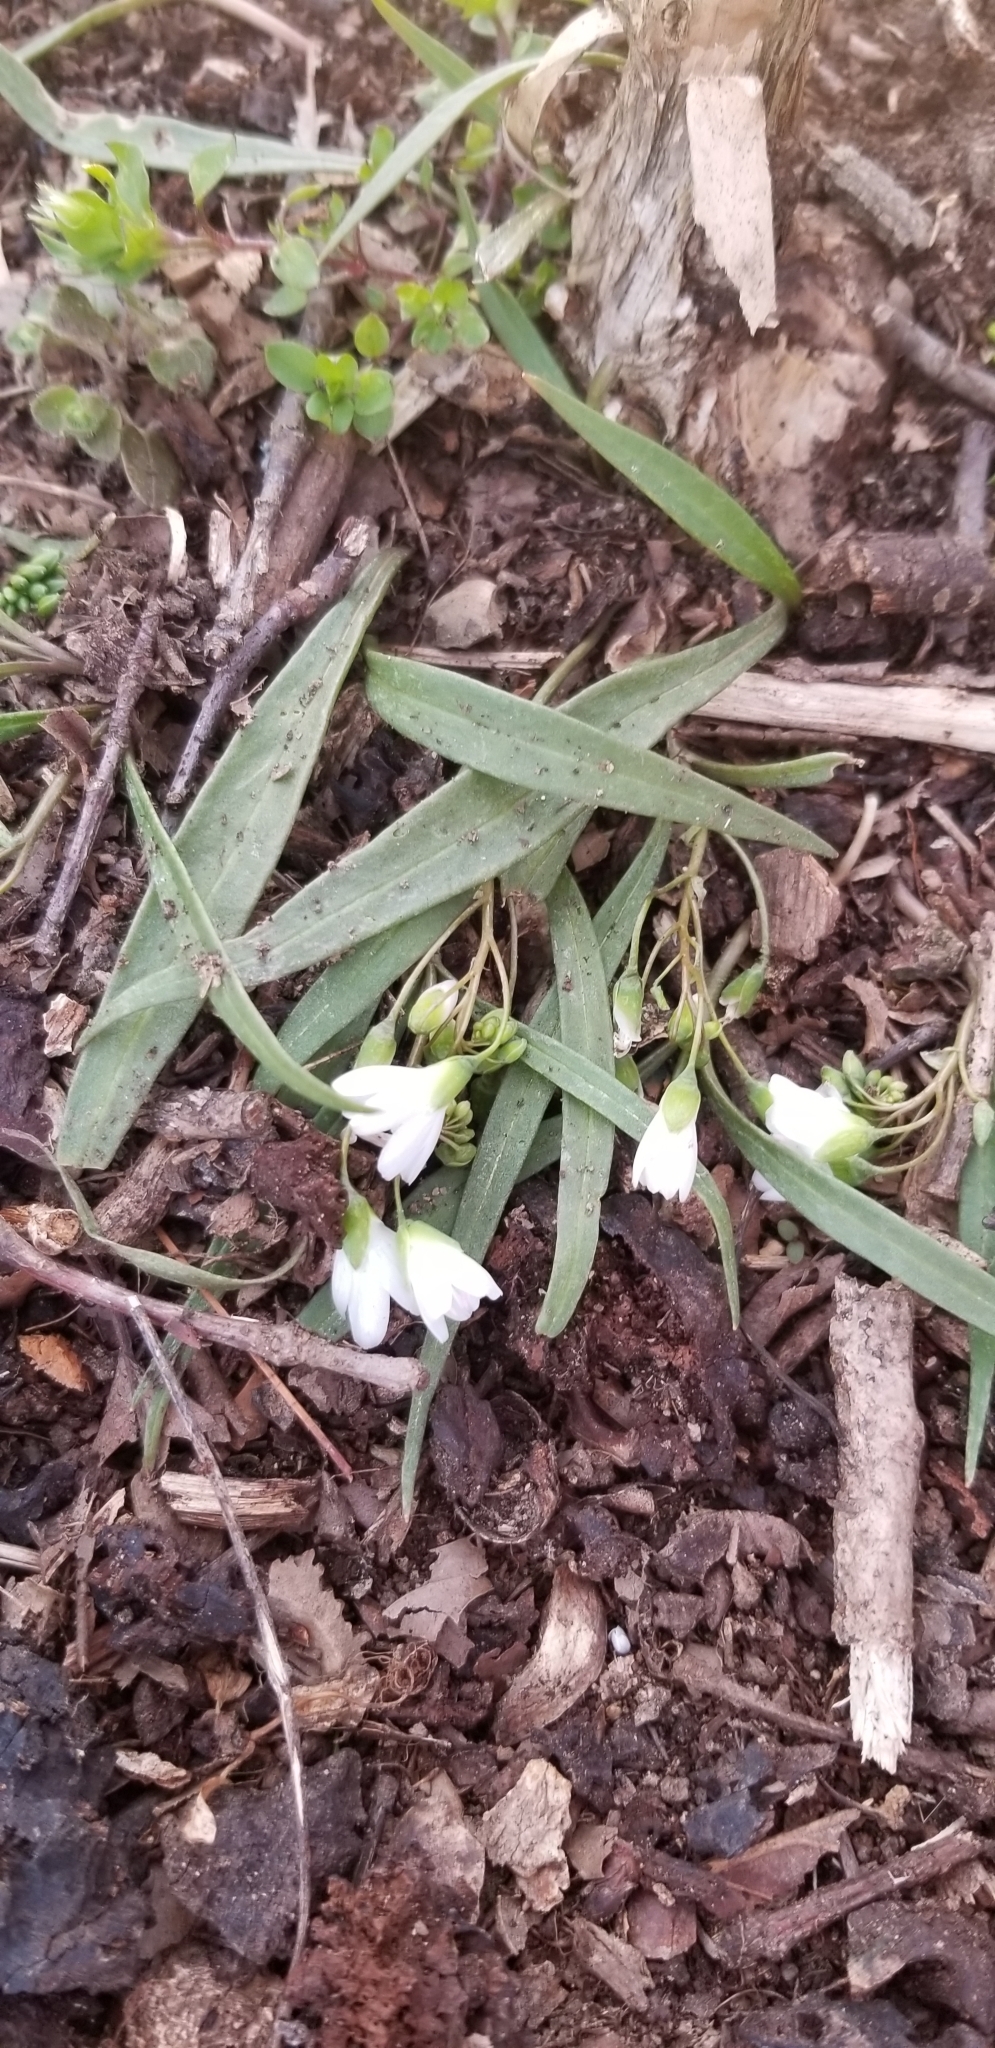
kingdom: Plantae
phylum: Tracheophyta
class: Magnoliopsida
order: Caryophyllales
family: Montiaceae
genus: Claytonia
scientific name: Claytonia virginica
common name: Virginia springbeauty
